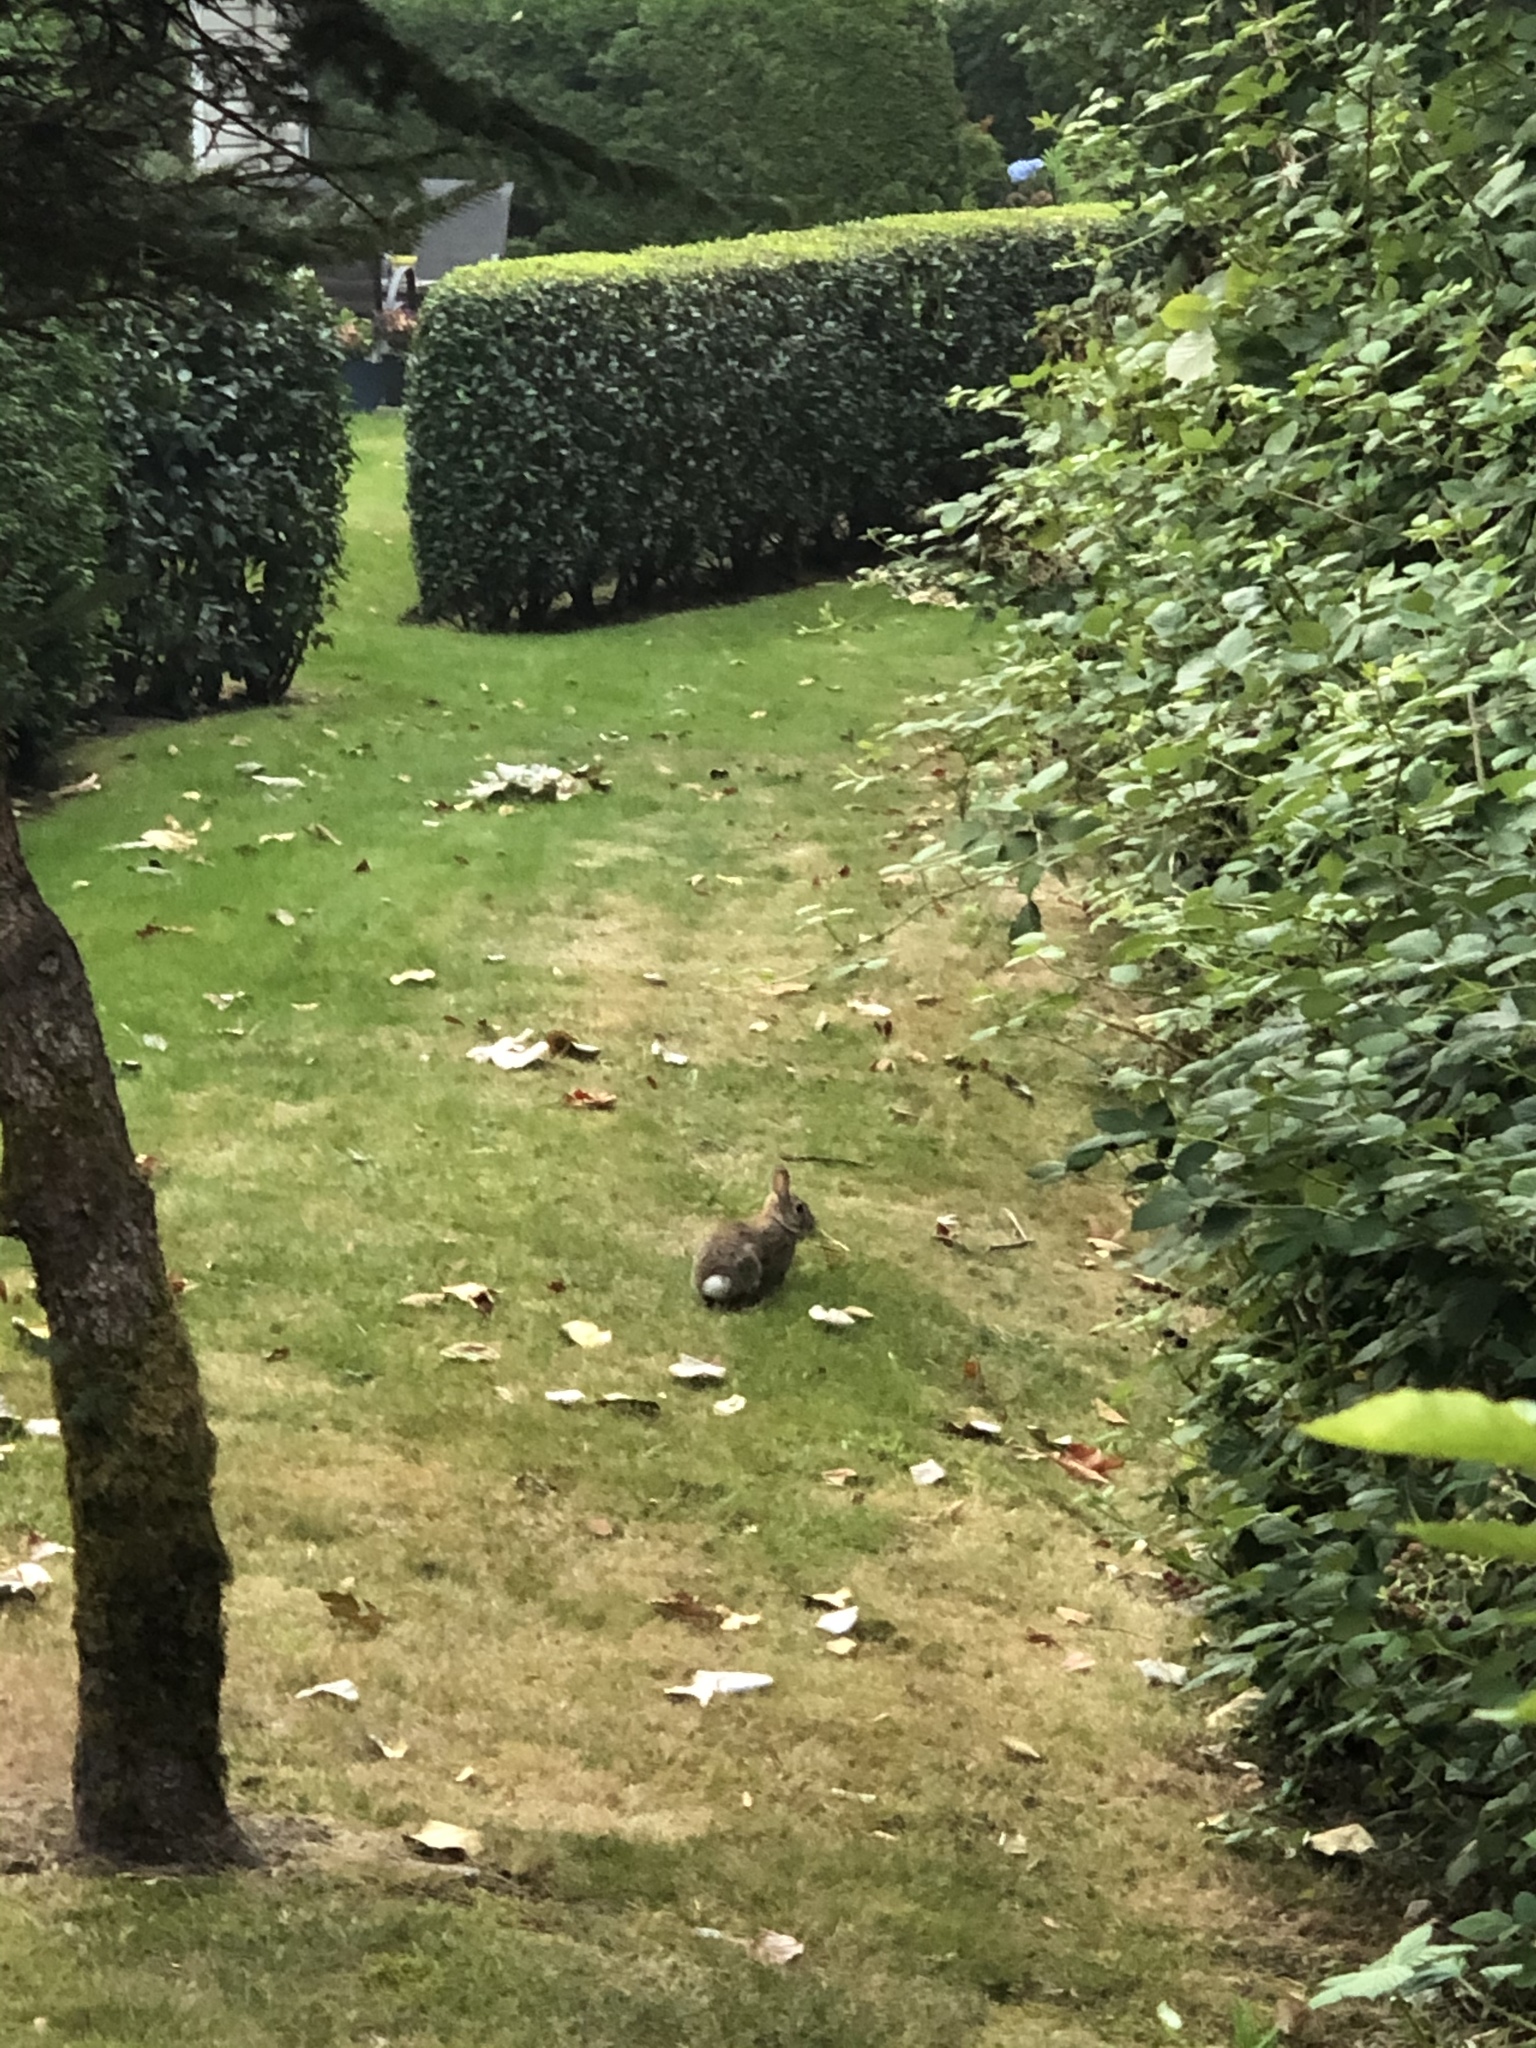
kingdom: Animalia
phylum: Chordata
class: Mammalia
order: Lagomorpha
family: Leporidae
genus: Sylvilagus
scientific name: Sylvilagus floridanus
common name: Eastern cottontail
